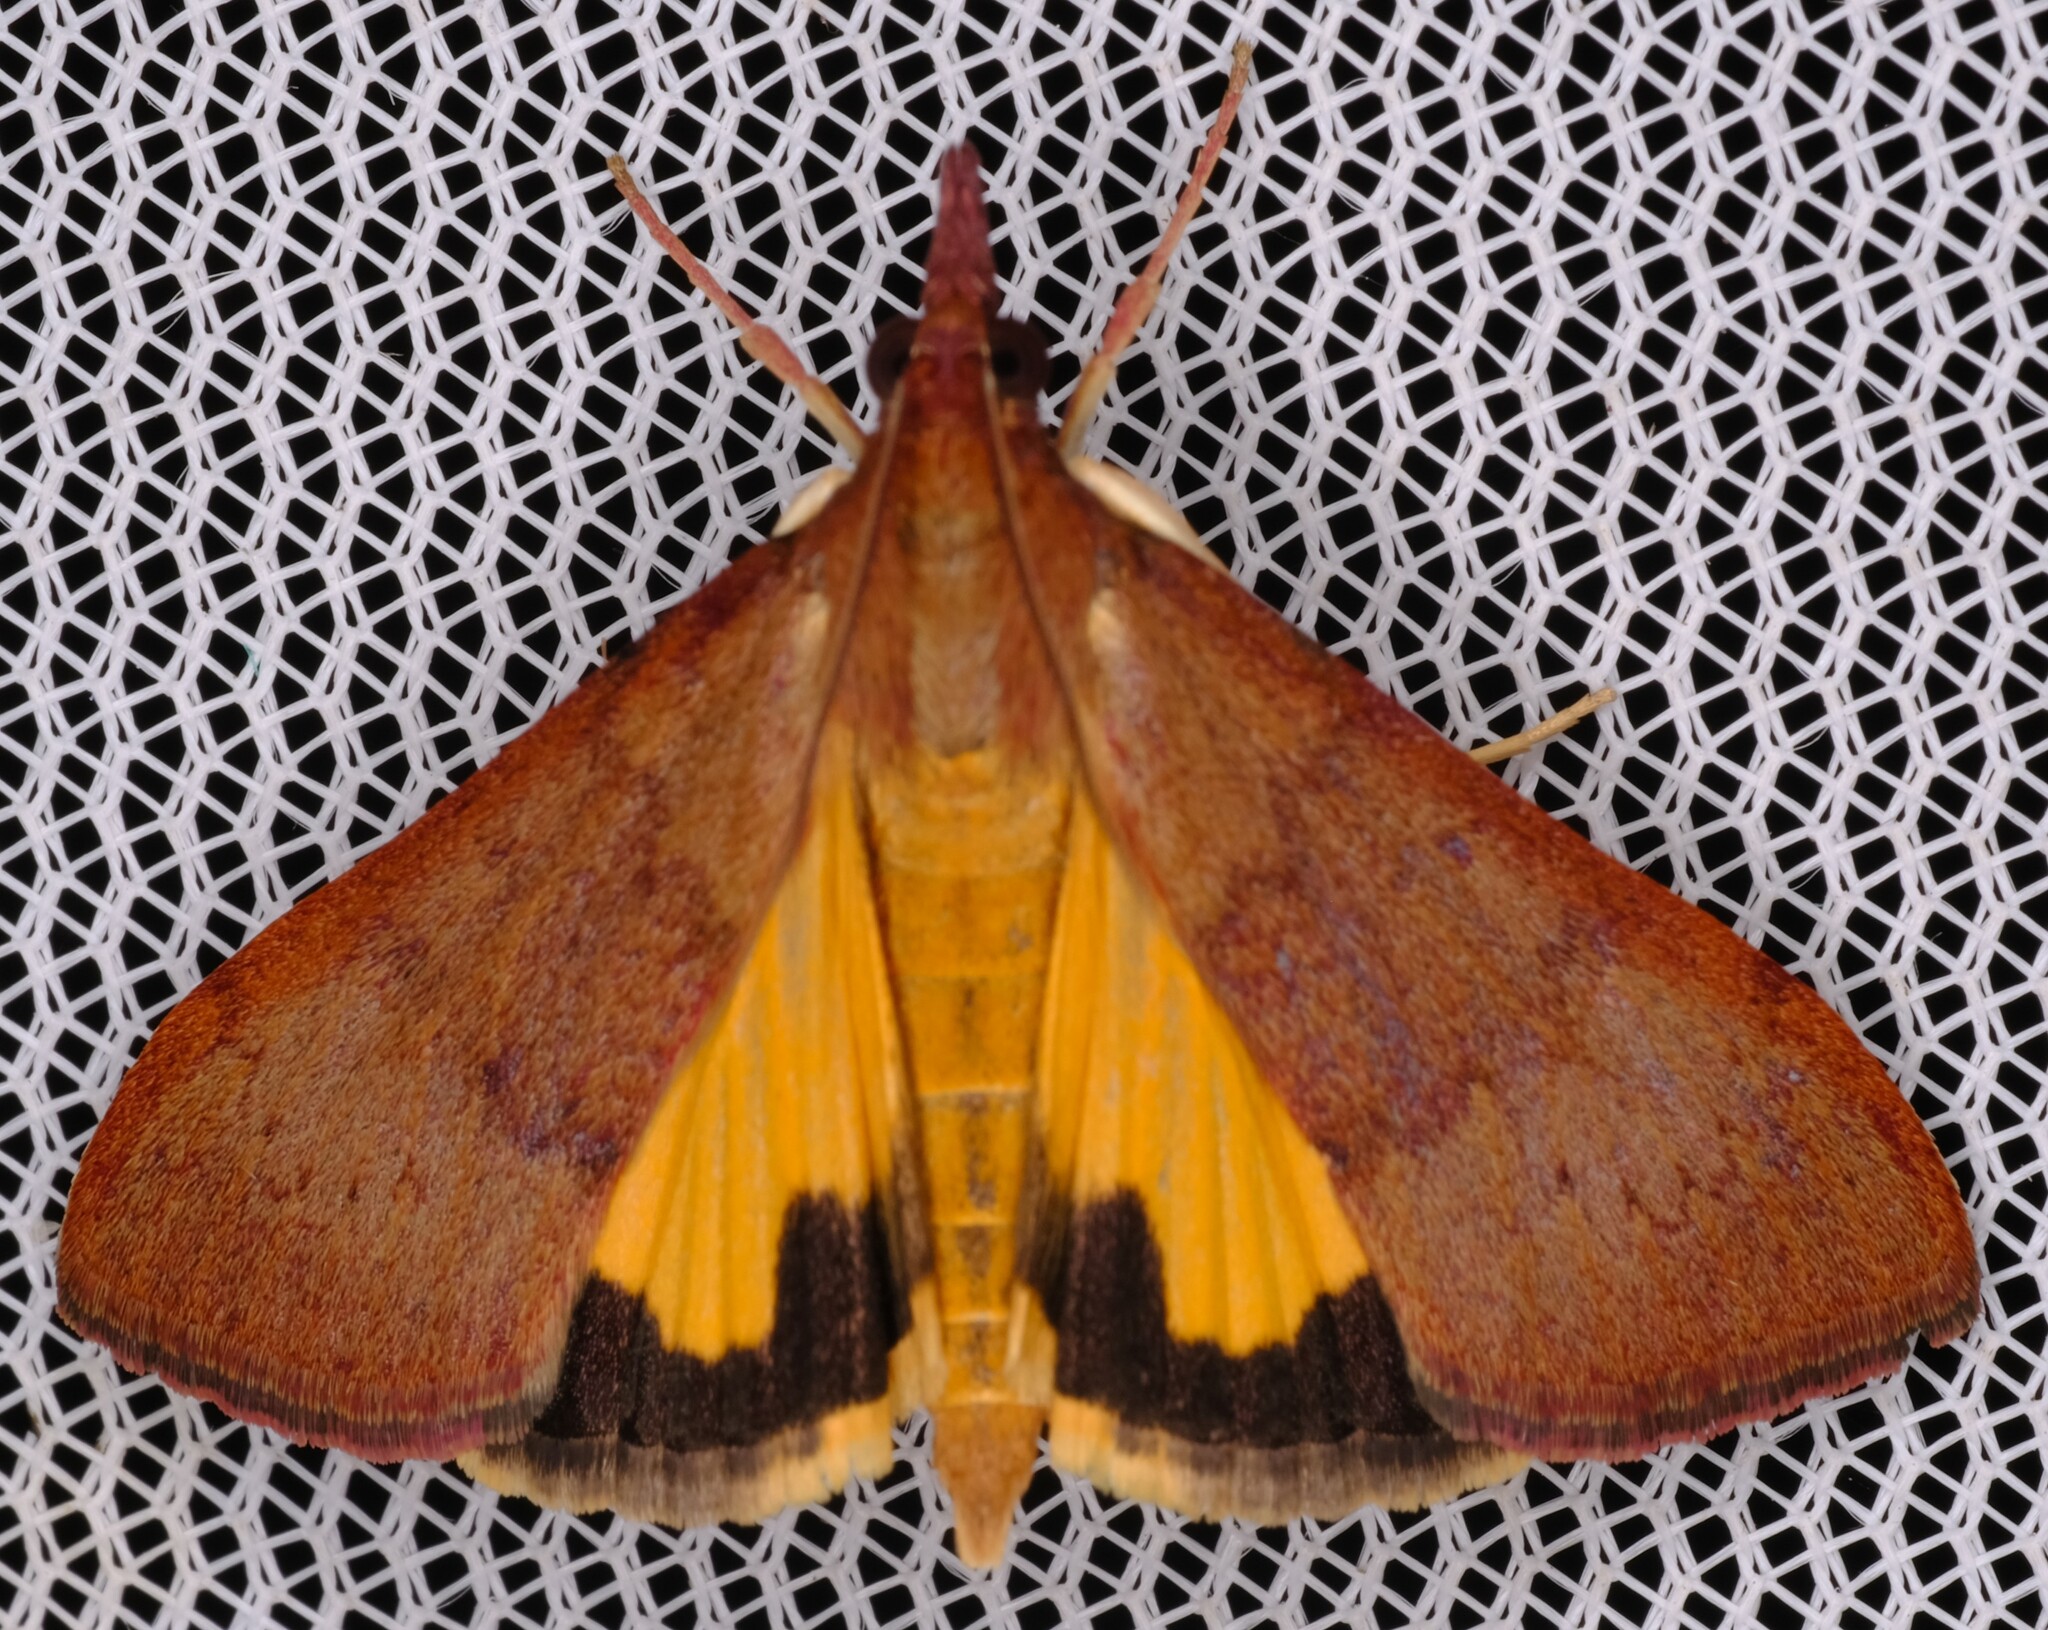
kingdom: Animalia
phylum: Arthropoda
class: Insecta
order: Lepidoptera
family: Crambidae
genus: Uresiphita
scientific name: Uresiphita ornithopteralis
